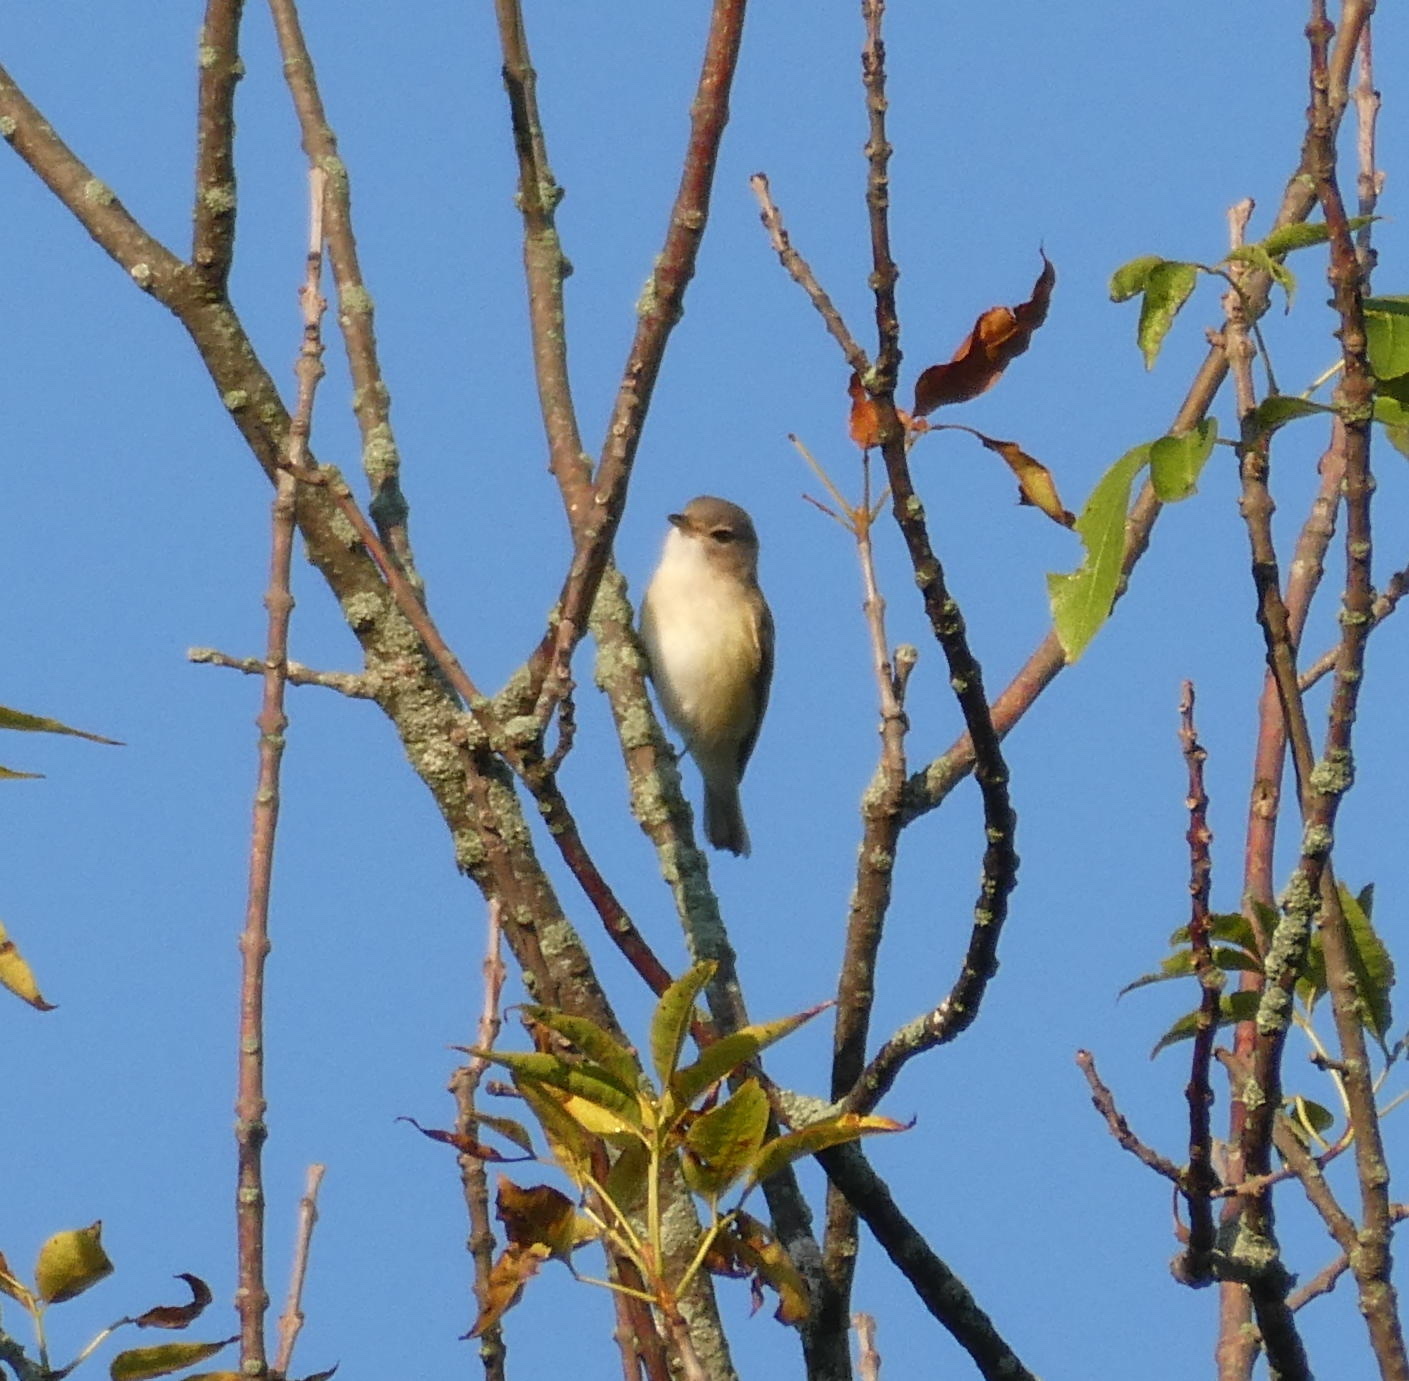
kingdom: Animalia
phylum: Chordata
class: Aves
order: Passeriformes
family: Vireonidae
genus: Vireo
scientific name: Vireo gilvus
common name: Warbling vireo
